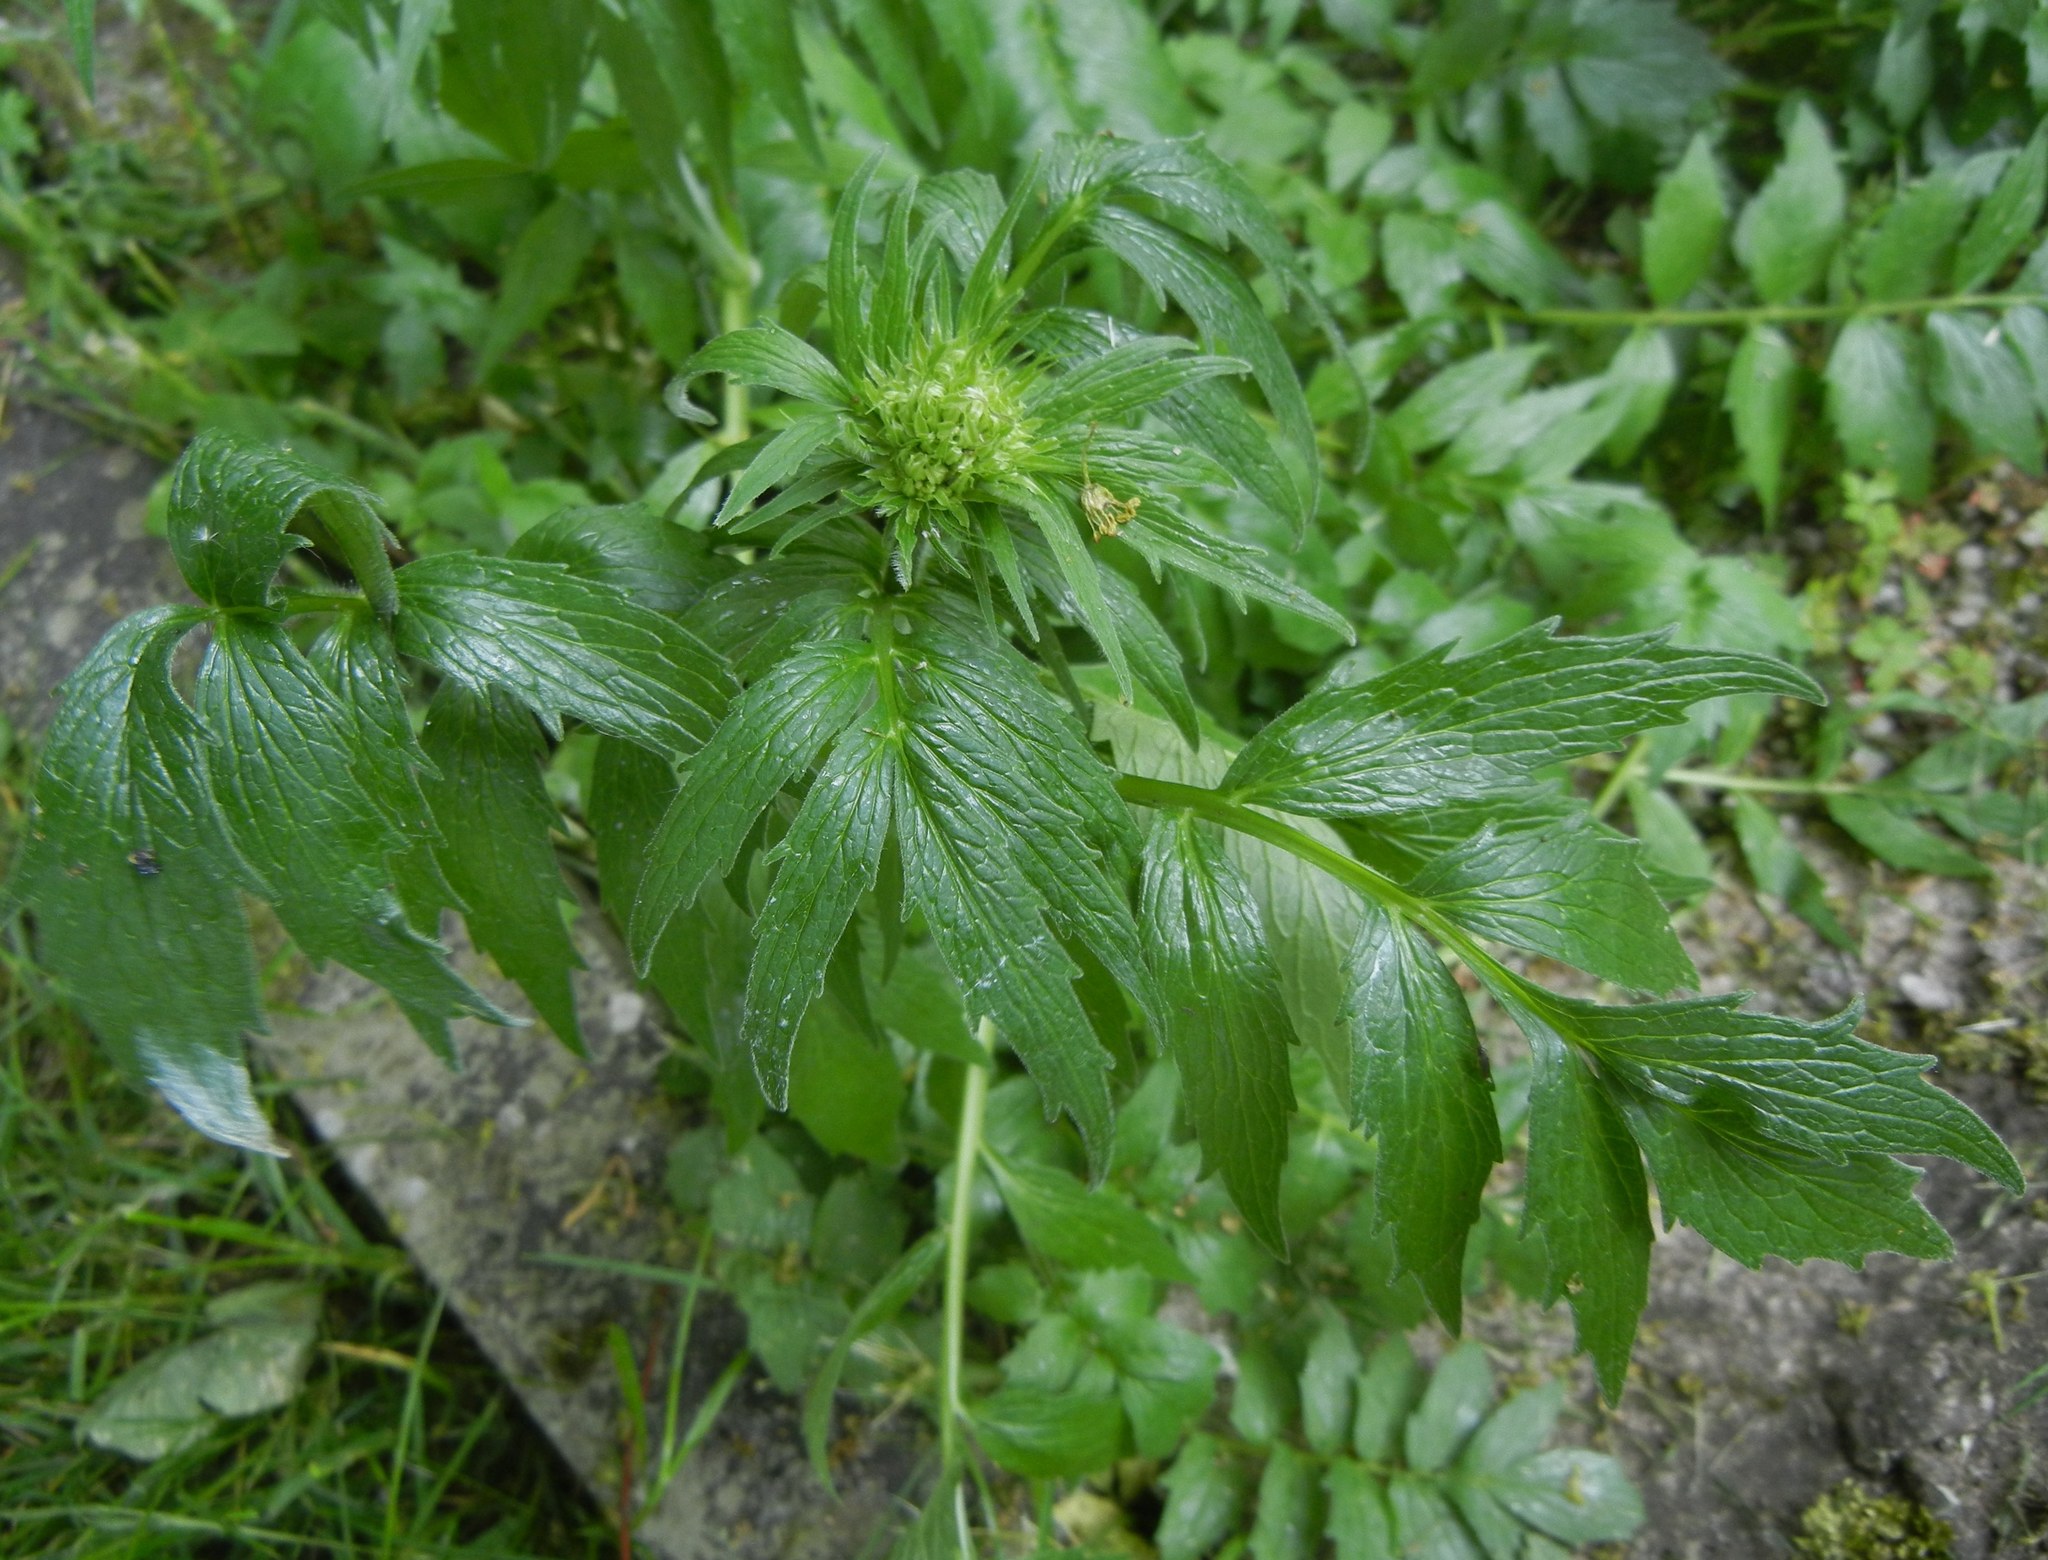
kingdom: Plantae
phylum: Tracheophyta
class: Magnoliopsida
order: Dipsacales
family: Caprifoliaceae
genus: Valeriana
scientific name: Valeriana officinalis
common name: Common valerian
